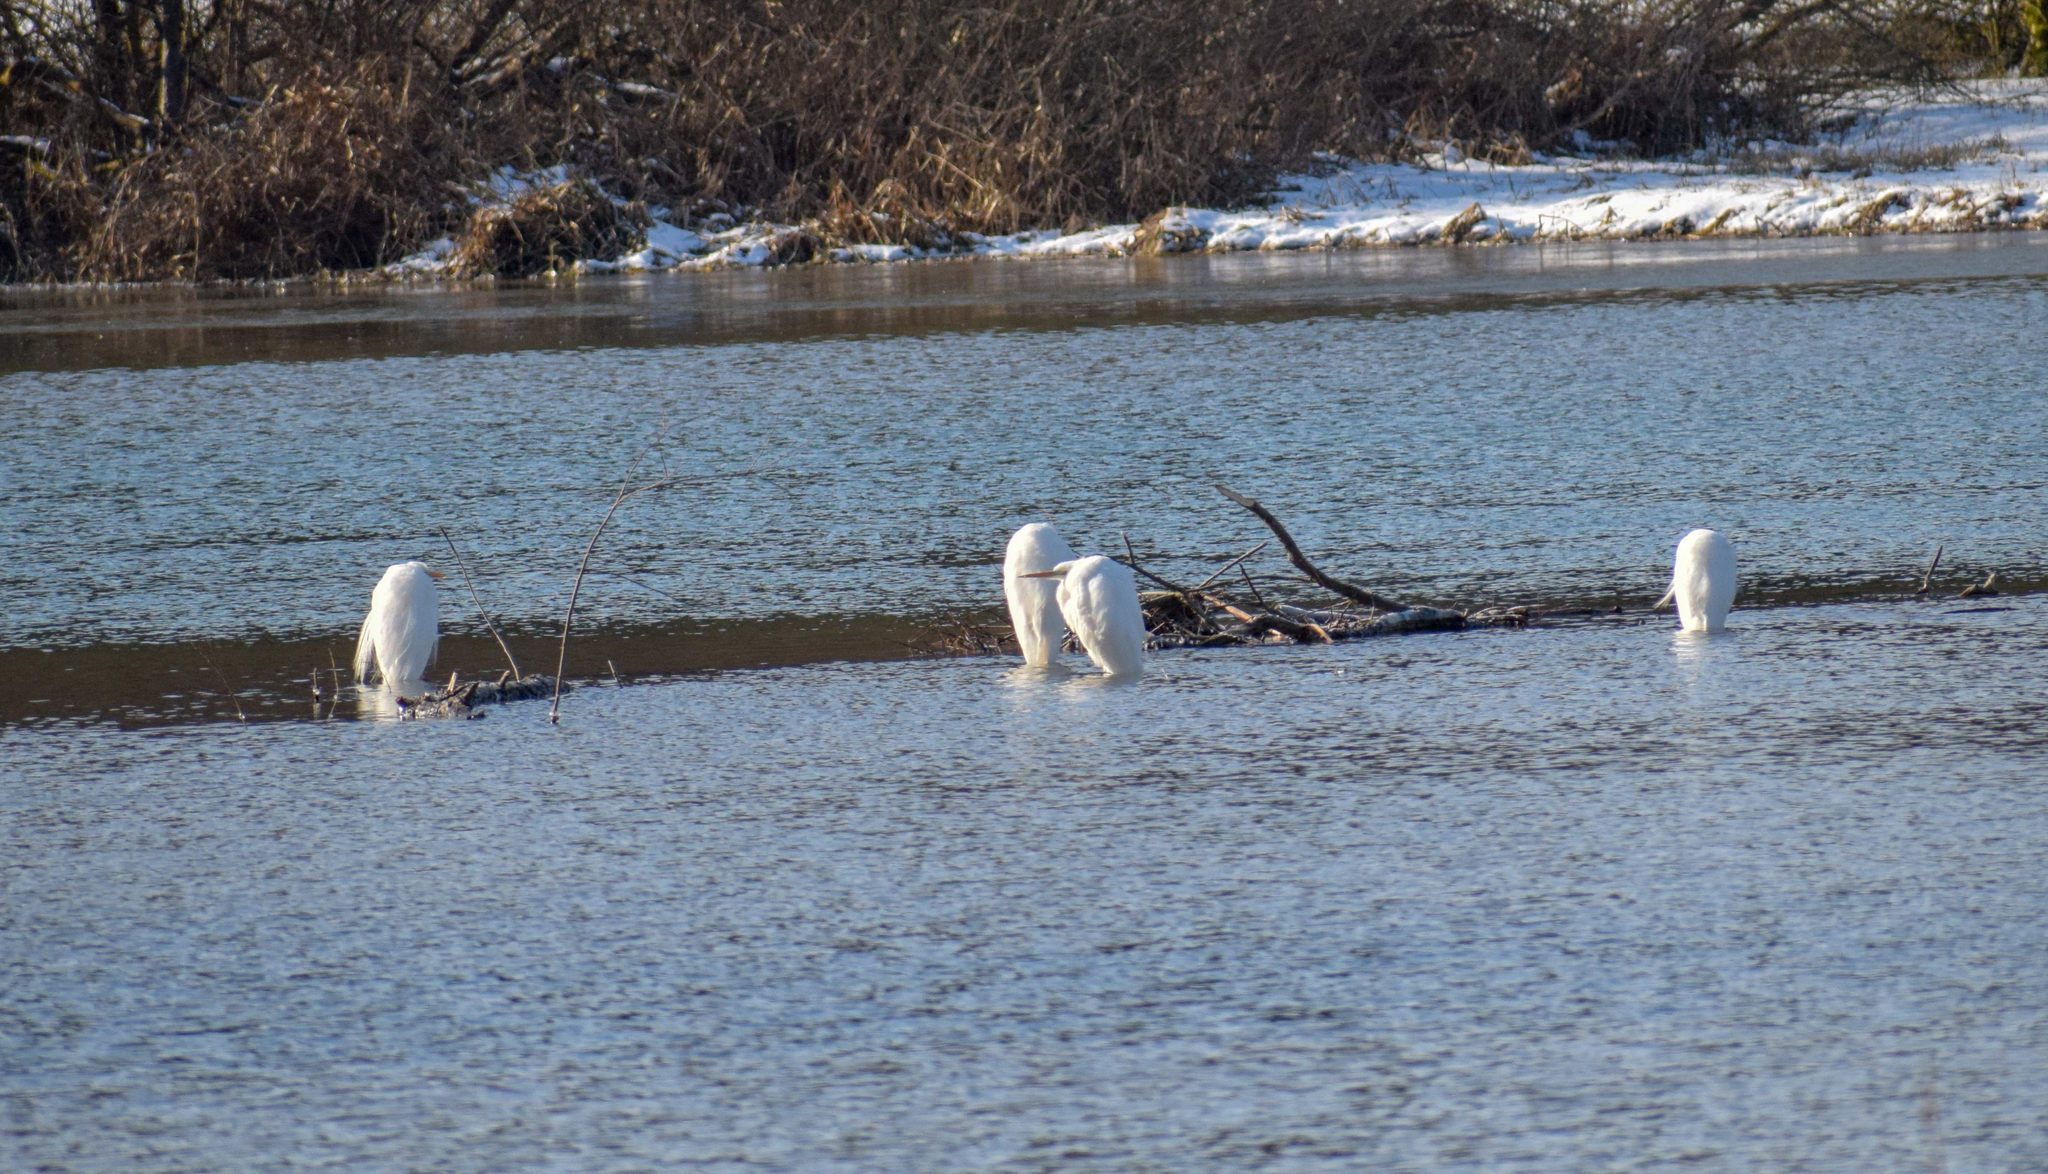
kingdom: Animalia
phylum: Chordata
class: Aves
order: Pelecaniformes
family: Ardeidae
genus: Ardea
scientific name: Ardea alba
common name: Great egret
